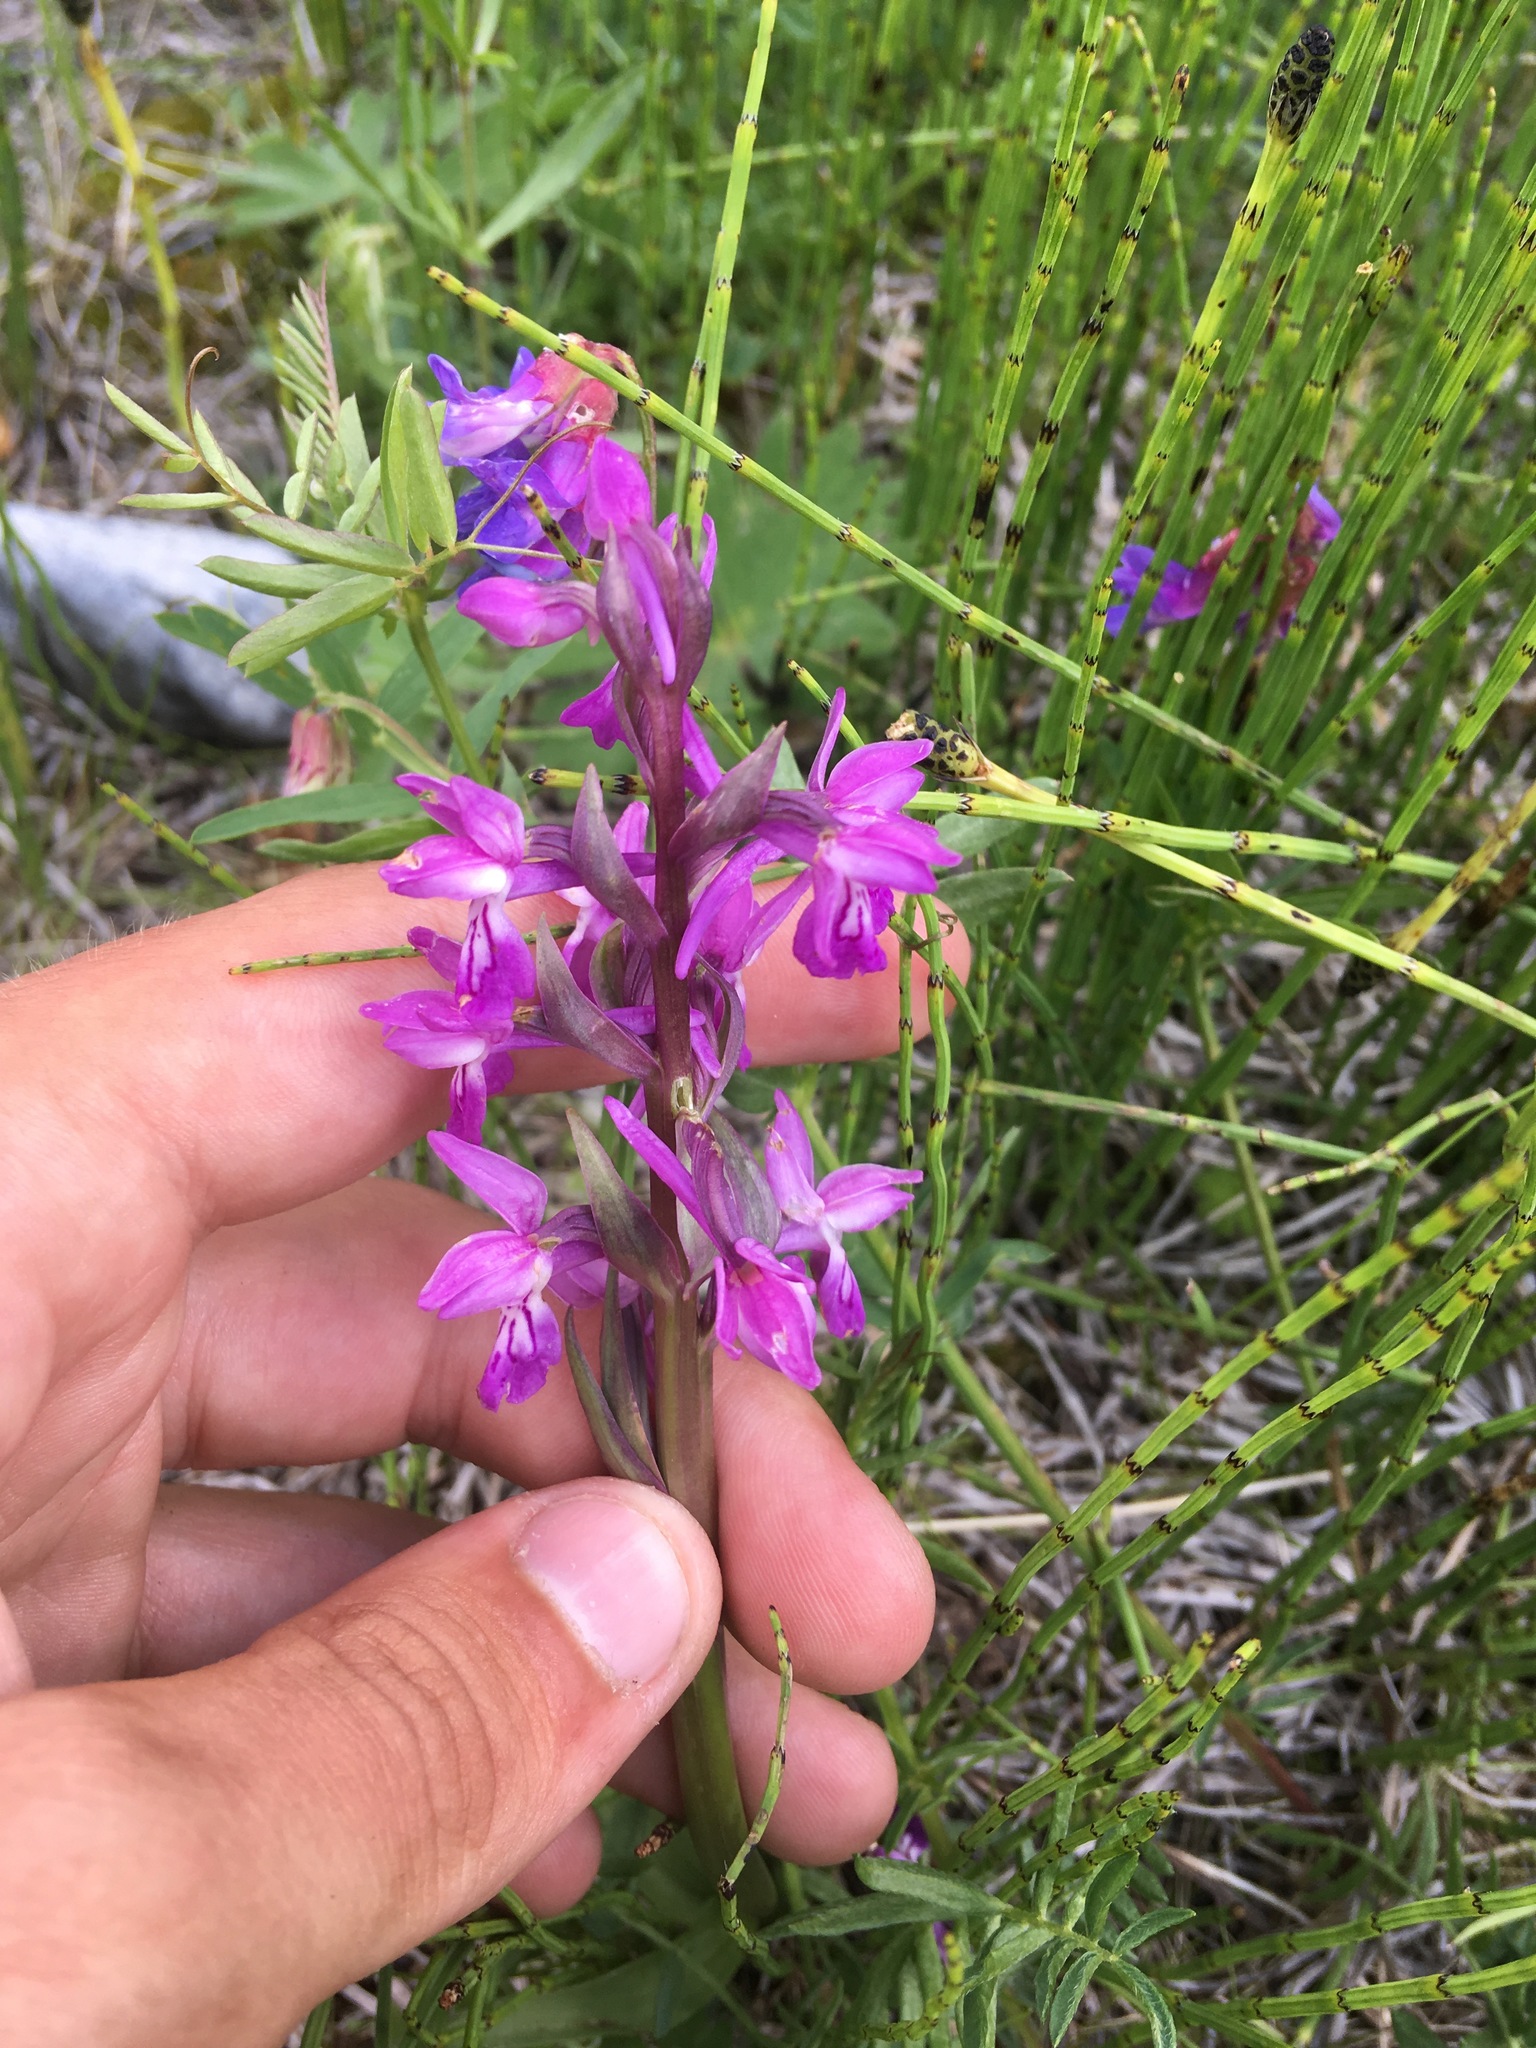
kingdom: Plantae
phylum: Tracheophyta
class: Liliopsida
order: Asparagales
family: Orchidaceae
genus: Dactylorhiza
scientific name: Dactylorhiza salina
